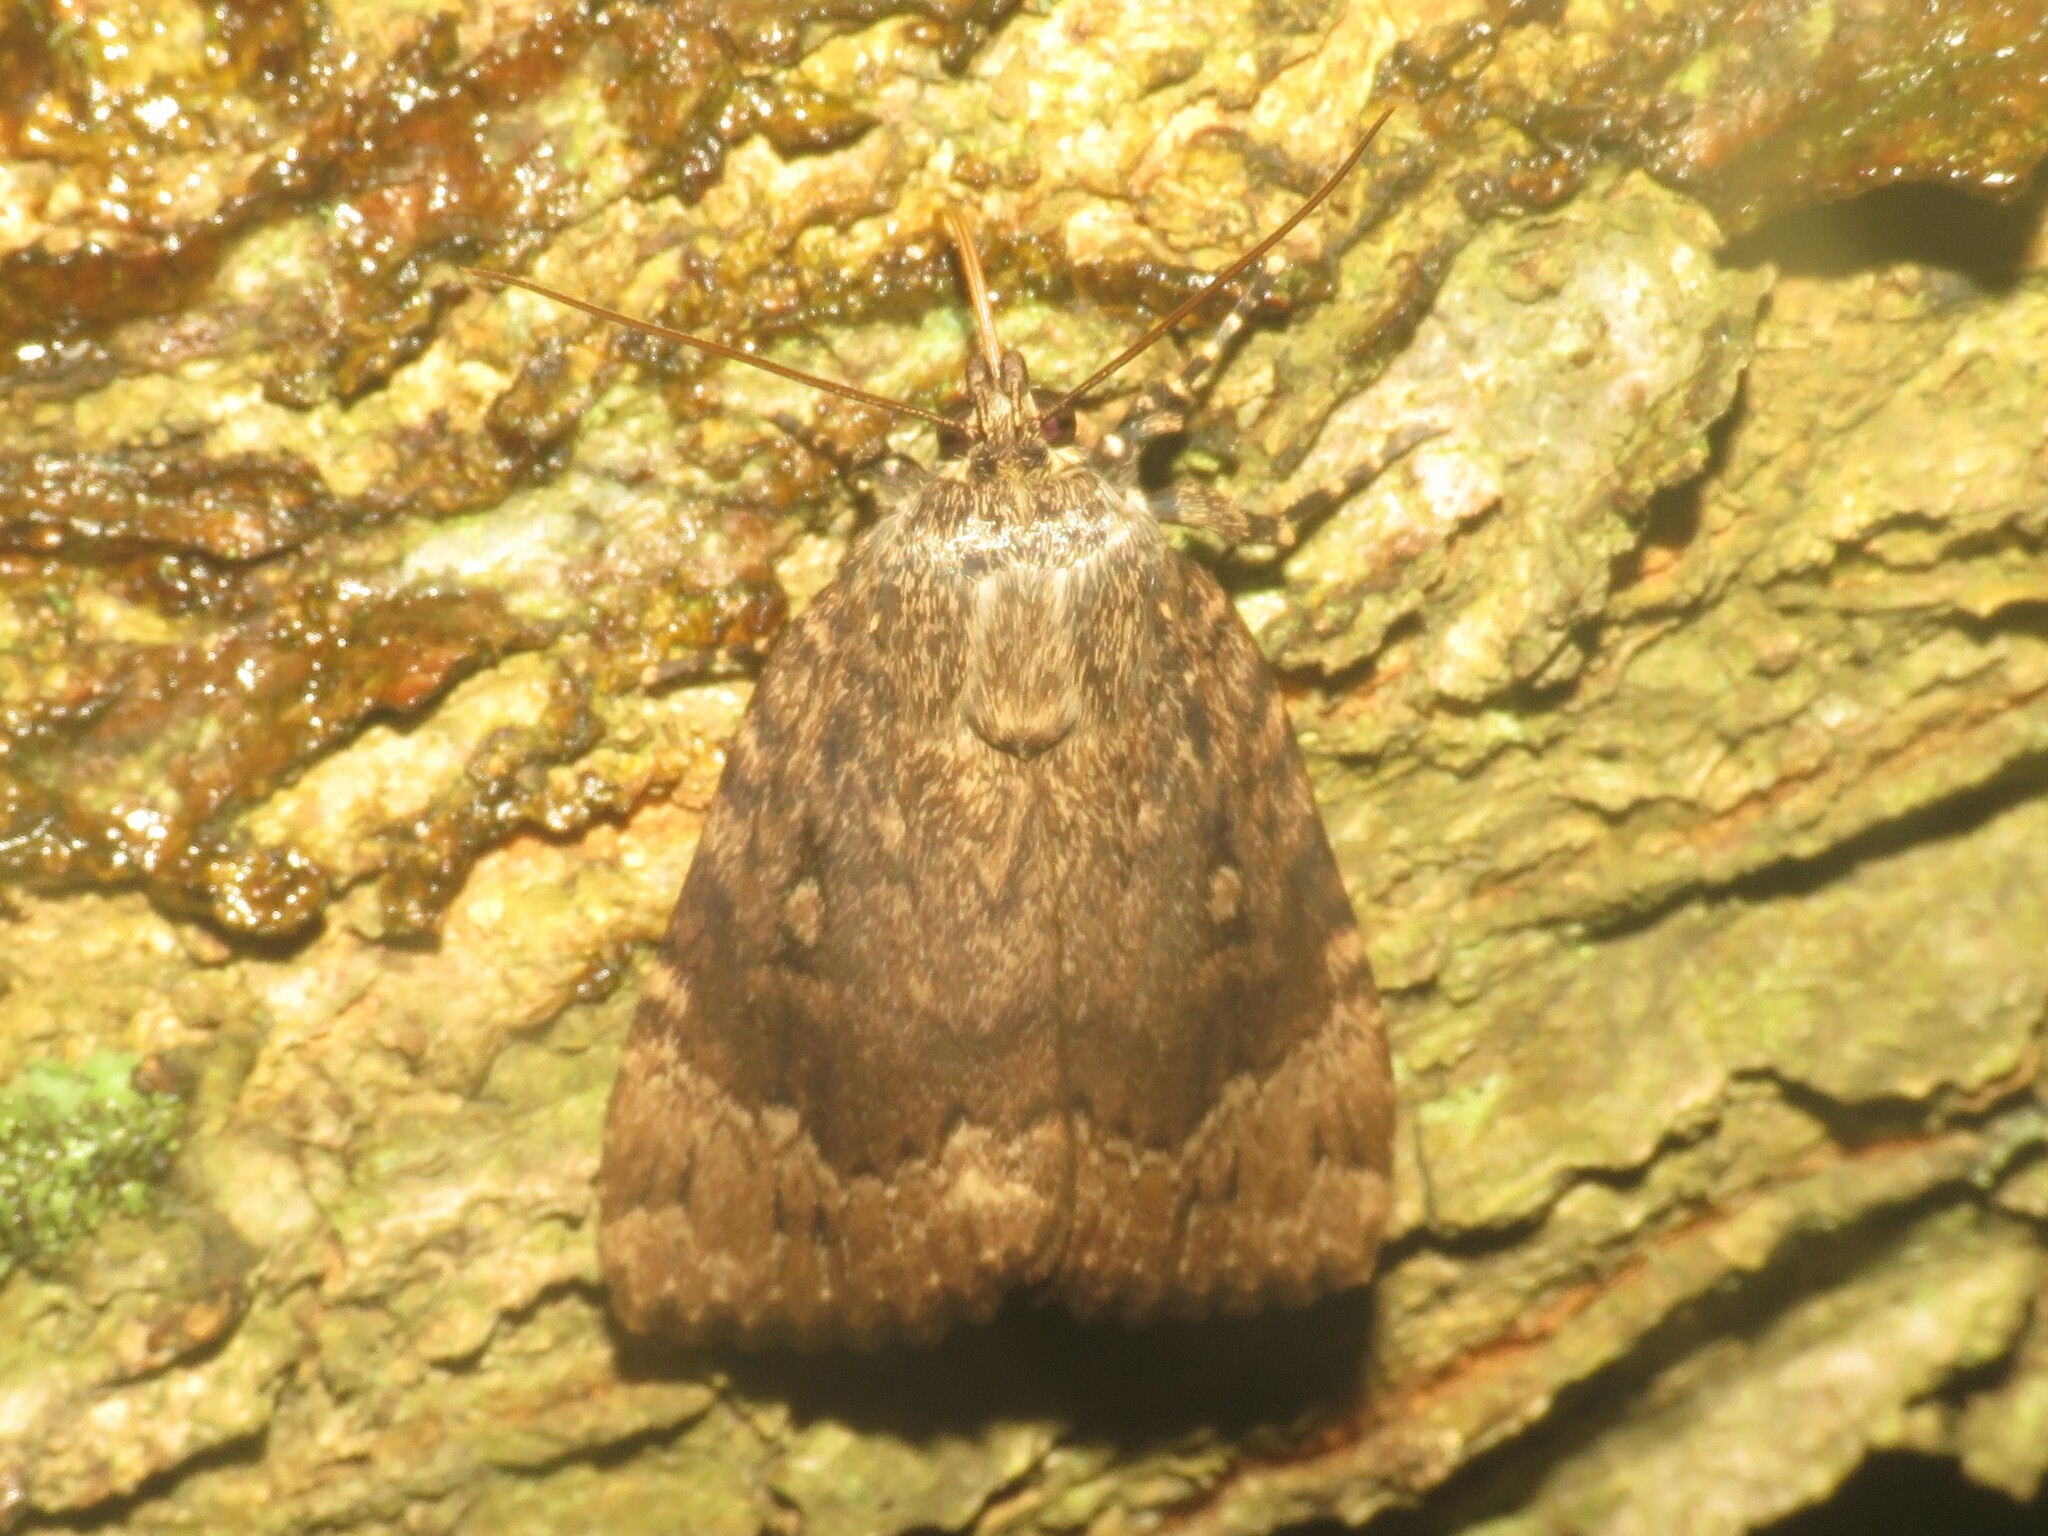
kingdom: Animalia
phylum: Arthropoda
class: Insecta
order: Lepidoptera
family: Noctuidae
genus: Amphipyra
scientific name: Amphipyra pyramidoides
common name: American copper underwing
